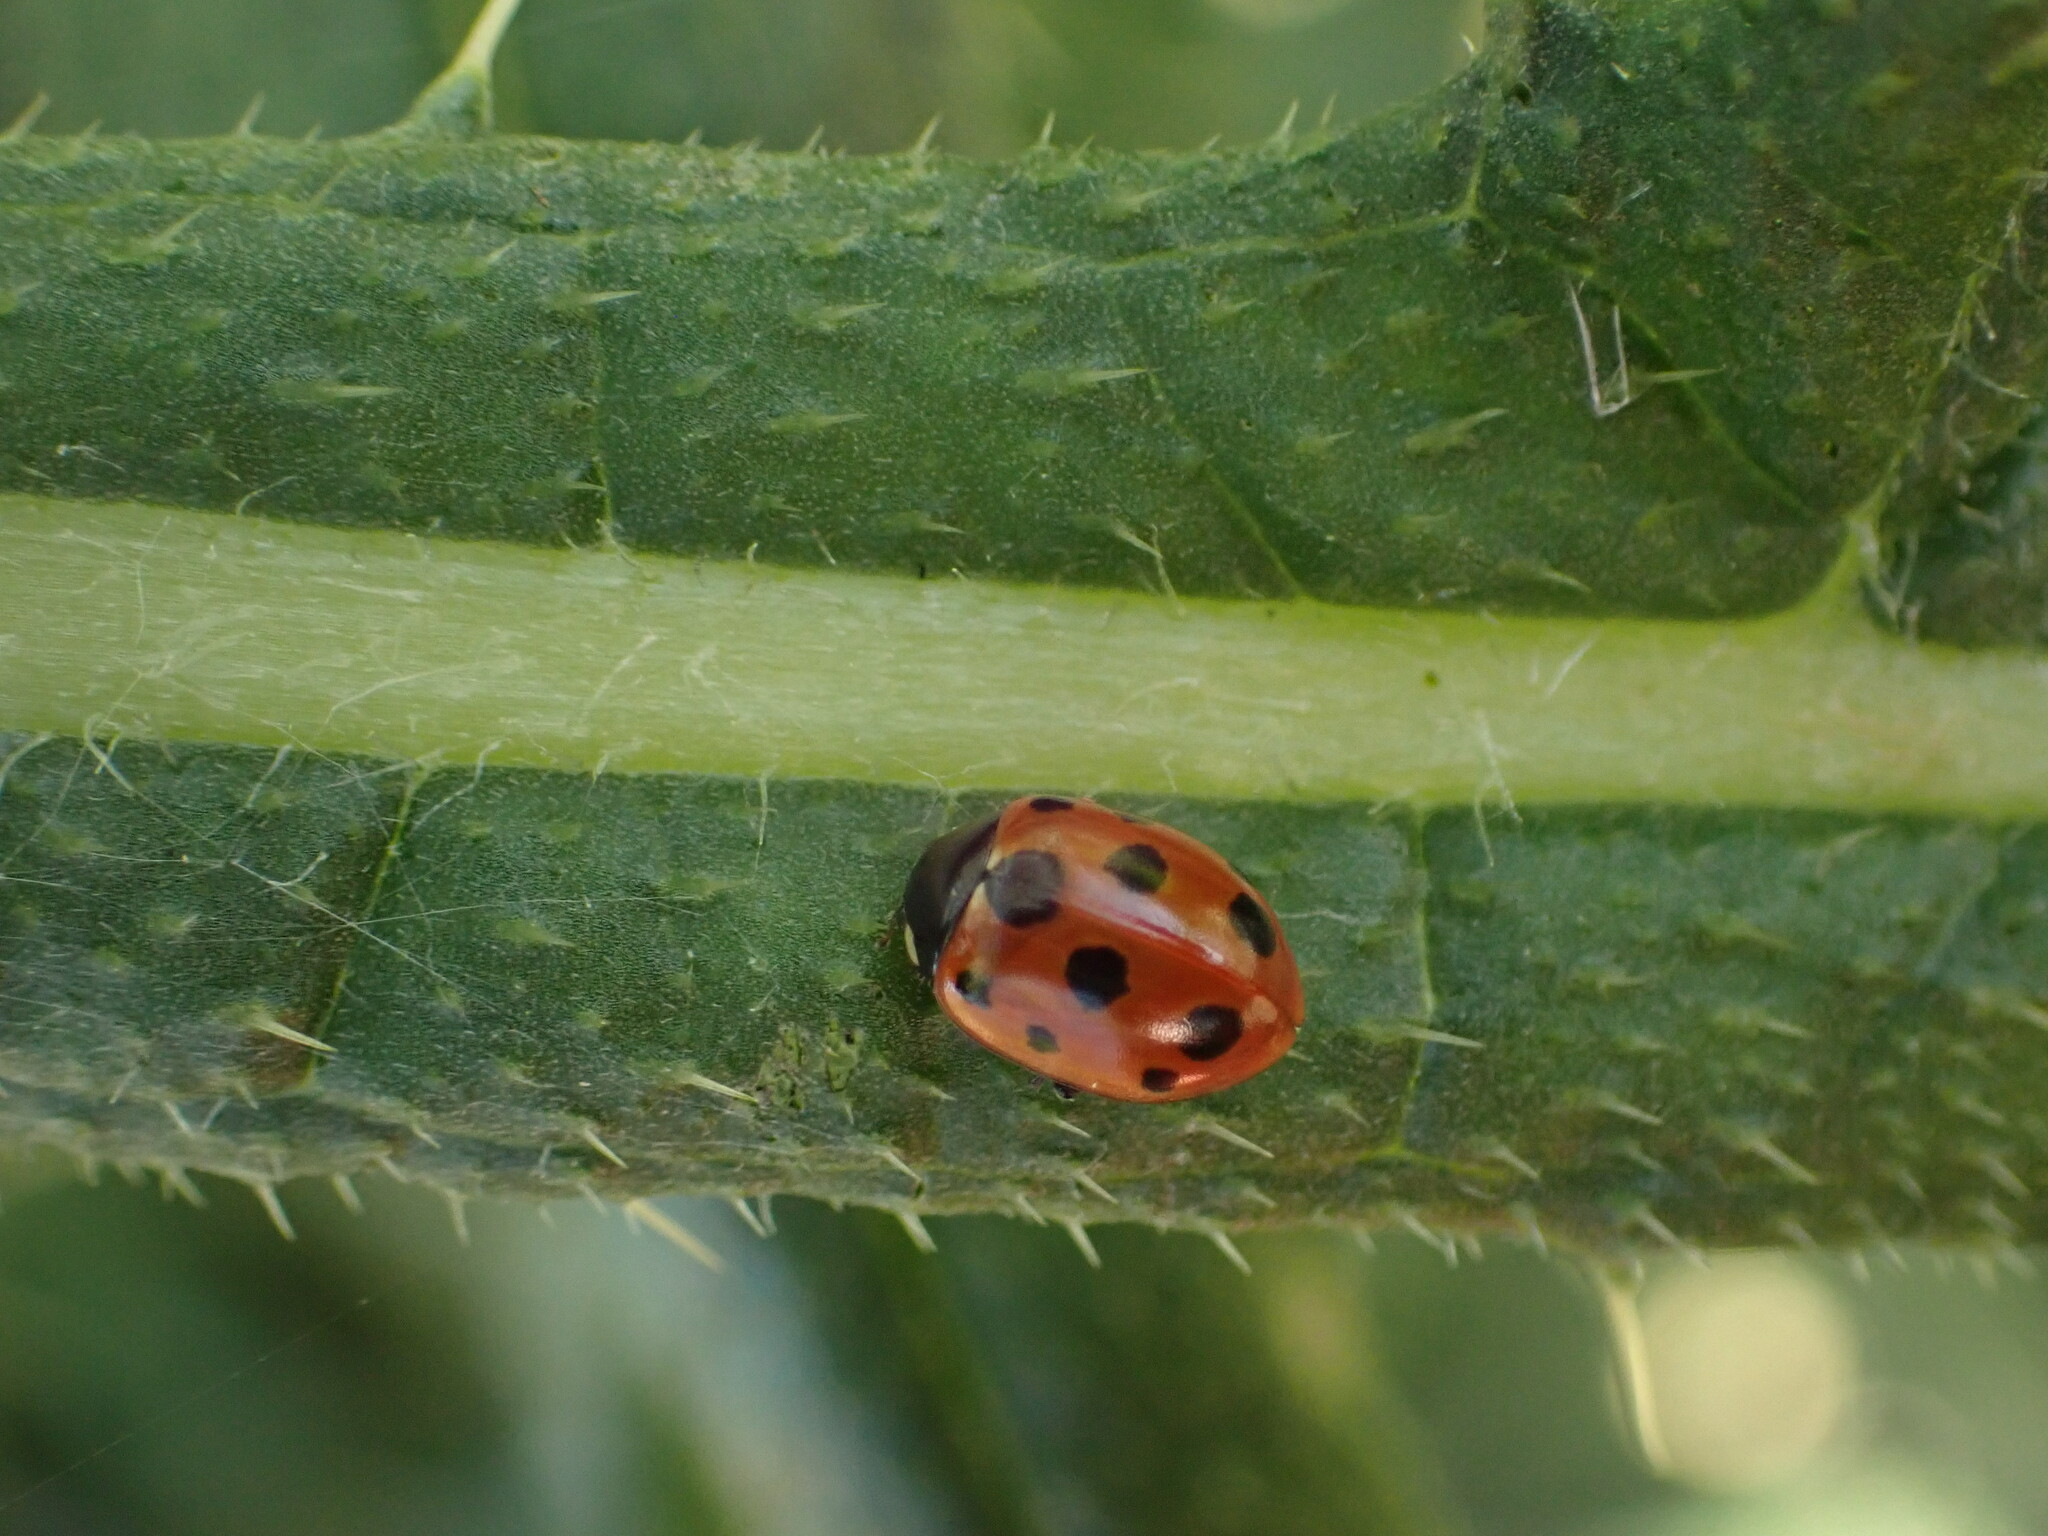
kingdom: Animalia
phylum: Arthropoda
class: Insecta
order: Coleoptera
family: Coccinellidae
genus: Coccinella
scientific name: Coccinella undecimpunctata
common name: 11-spot ladybird
